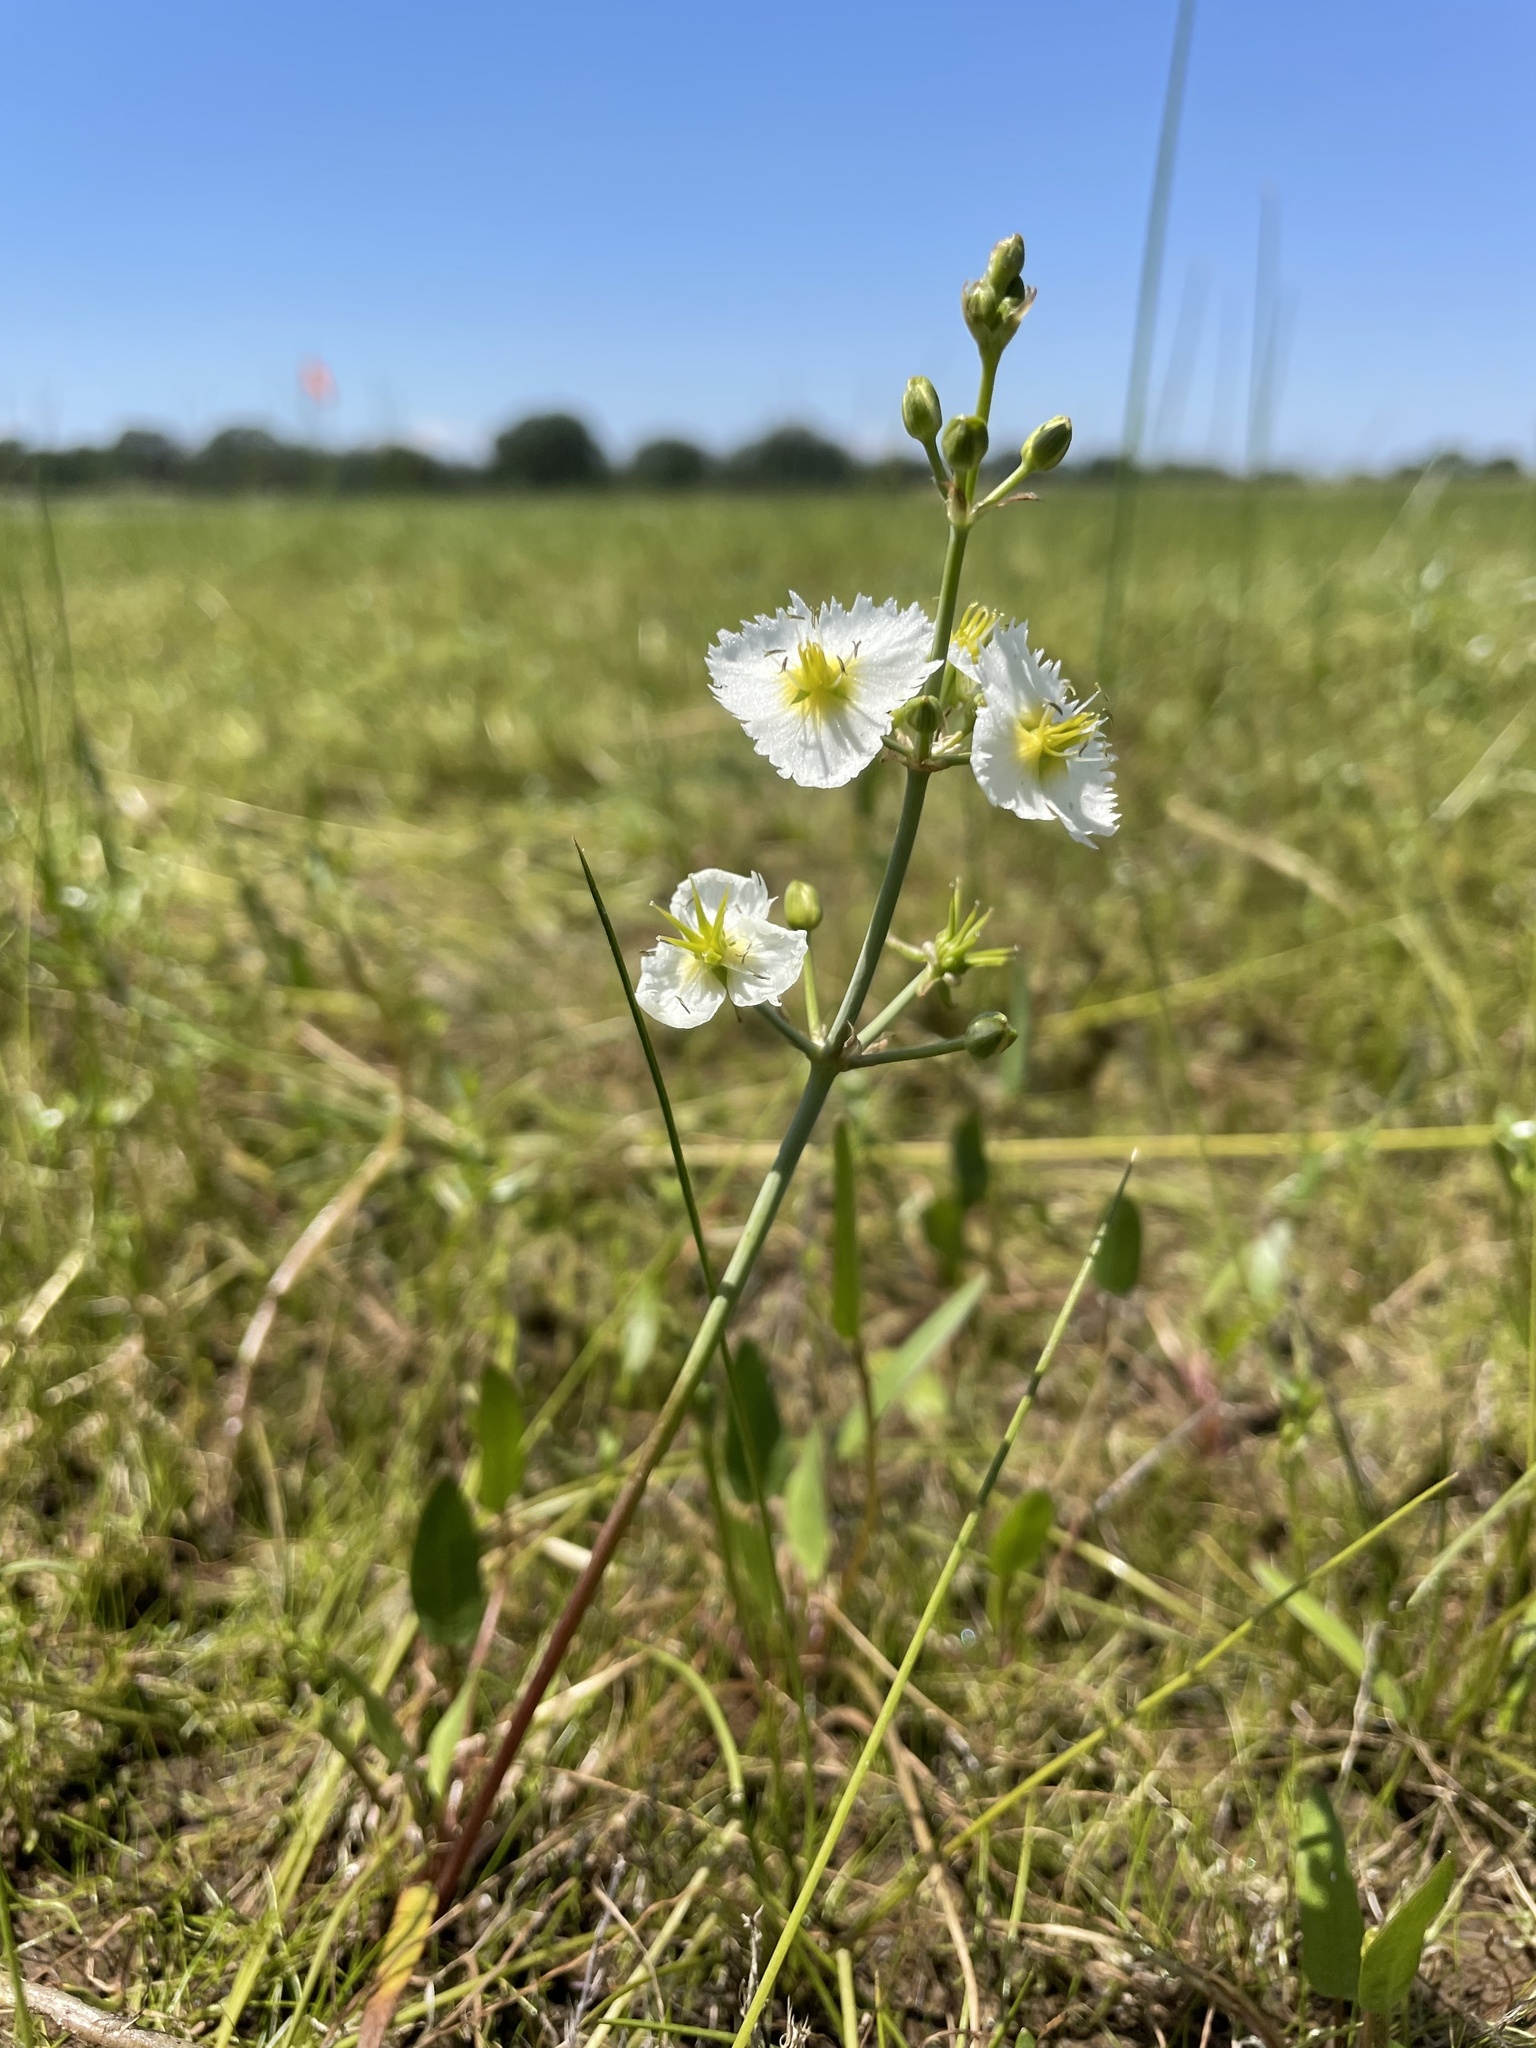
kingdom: Plantae
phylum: Tracheophyta
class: Liliopsida
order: Alismatales
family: Alismataceae
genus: Damasonium
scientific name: Damasonium californicum
